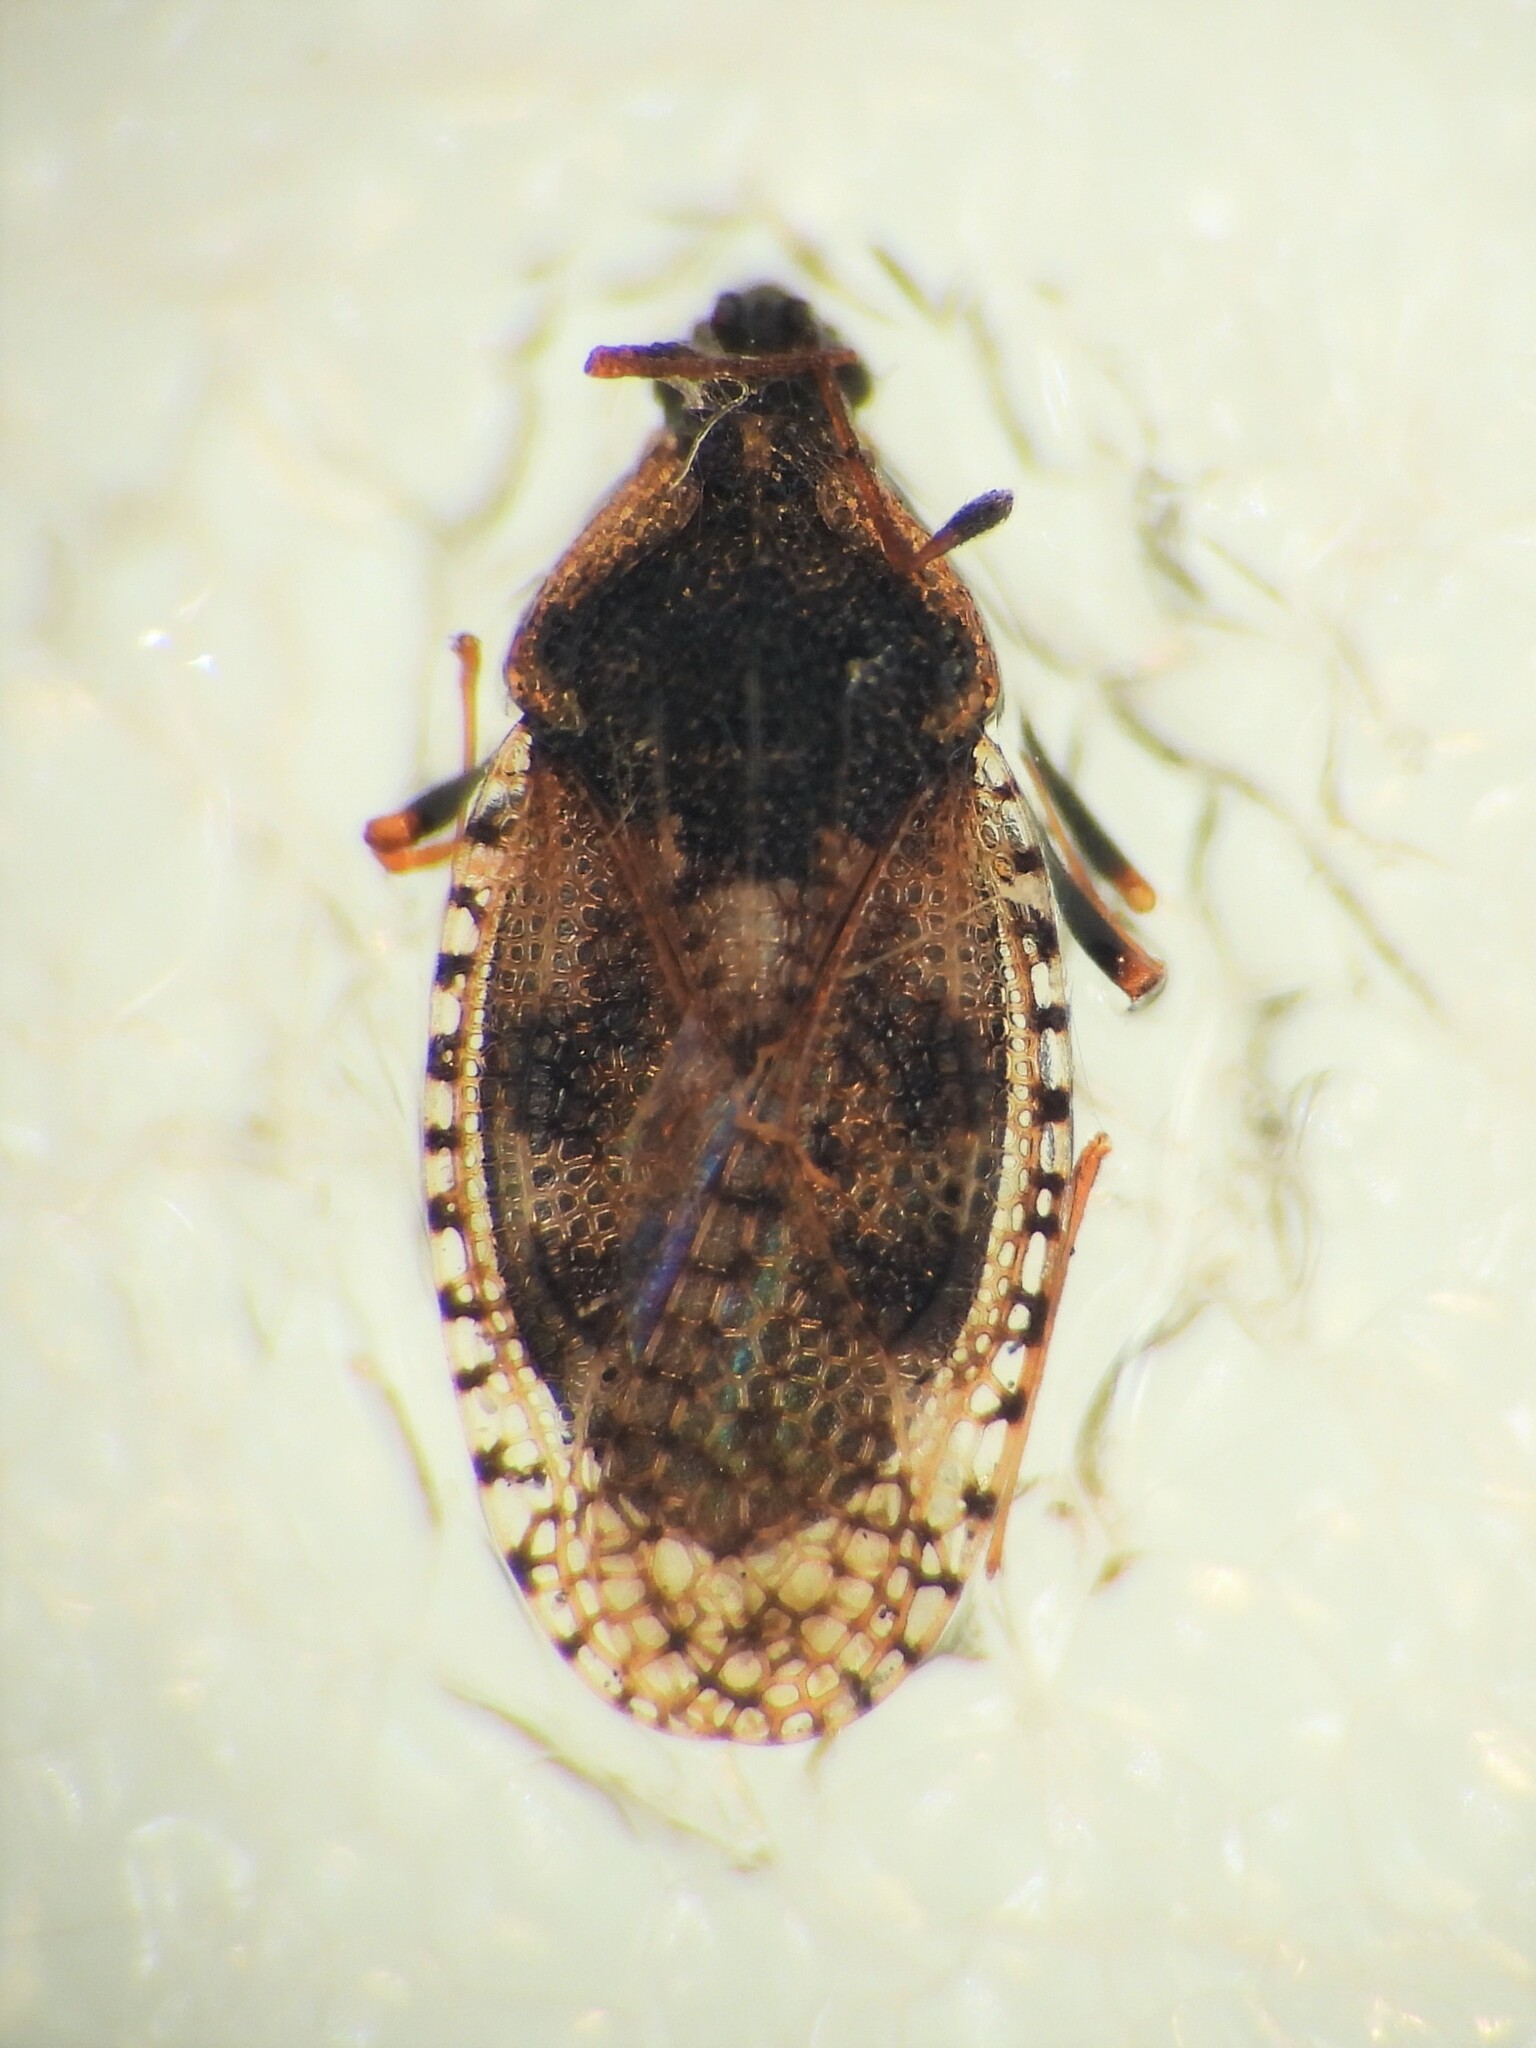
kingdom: Animalia
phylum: Arthropoda
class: Insecta
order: Hemiptera
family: Tingidae
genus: Dictyla
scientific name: Dictyla echii
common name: Lace bug
